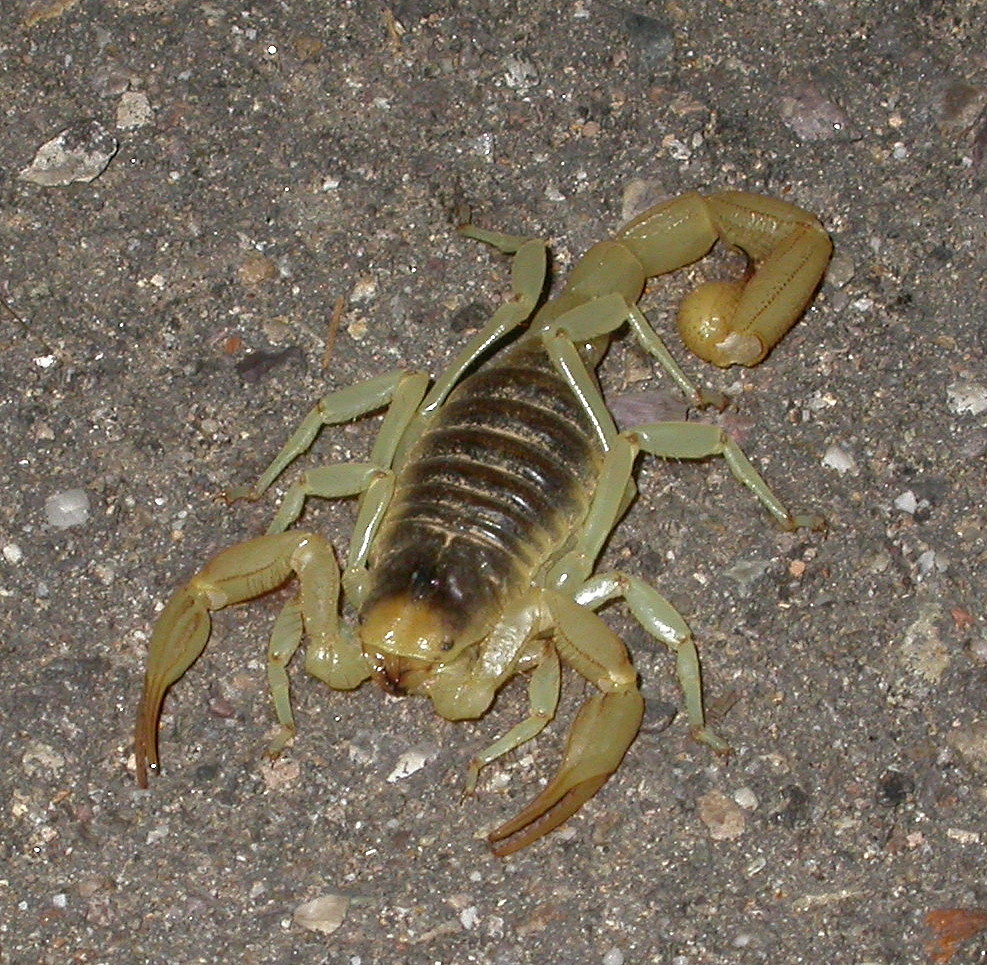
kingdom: Animalia
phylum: Arthropoda
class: Arachnida
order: Scorpiones
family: Hadruridae
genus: Hadrurus
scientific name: Hadrurus arizonensis
